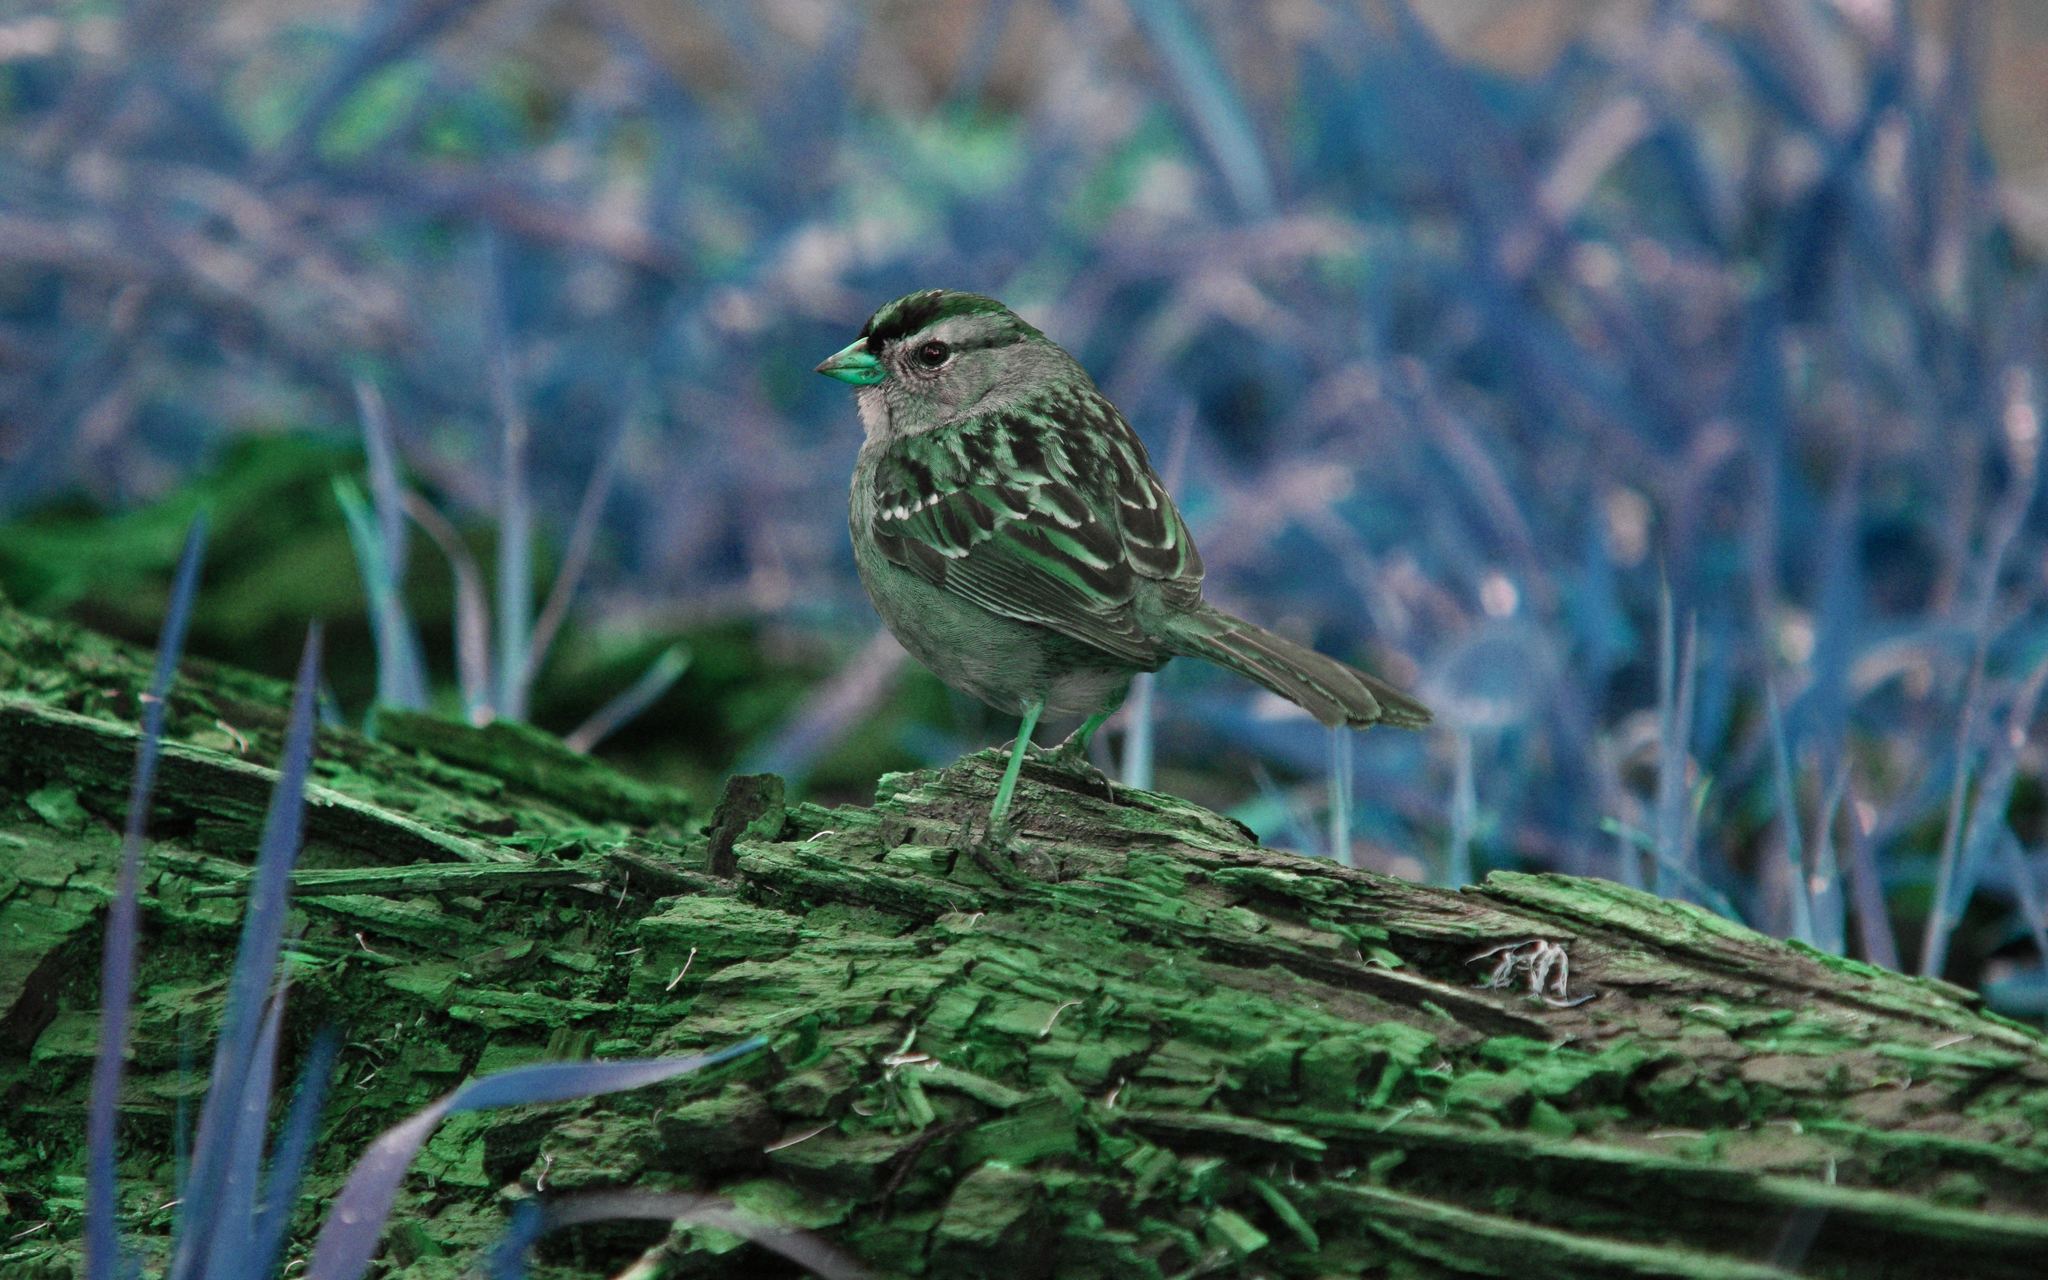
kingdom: Animalia
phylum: Chordata
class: Aves
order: Passeriformes
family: Passerellidae
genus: Zonotrichia
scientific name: Zonotrichia leucophrys
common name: White-crowned sparrow
